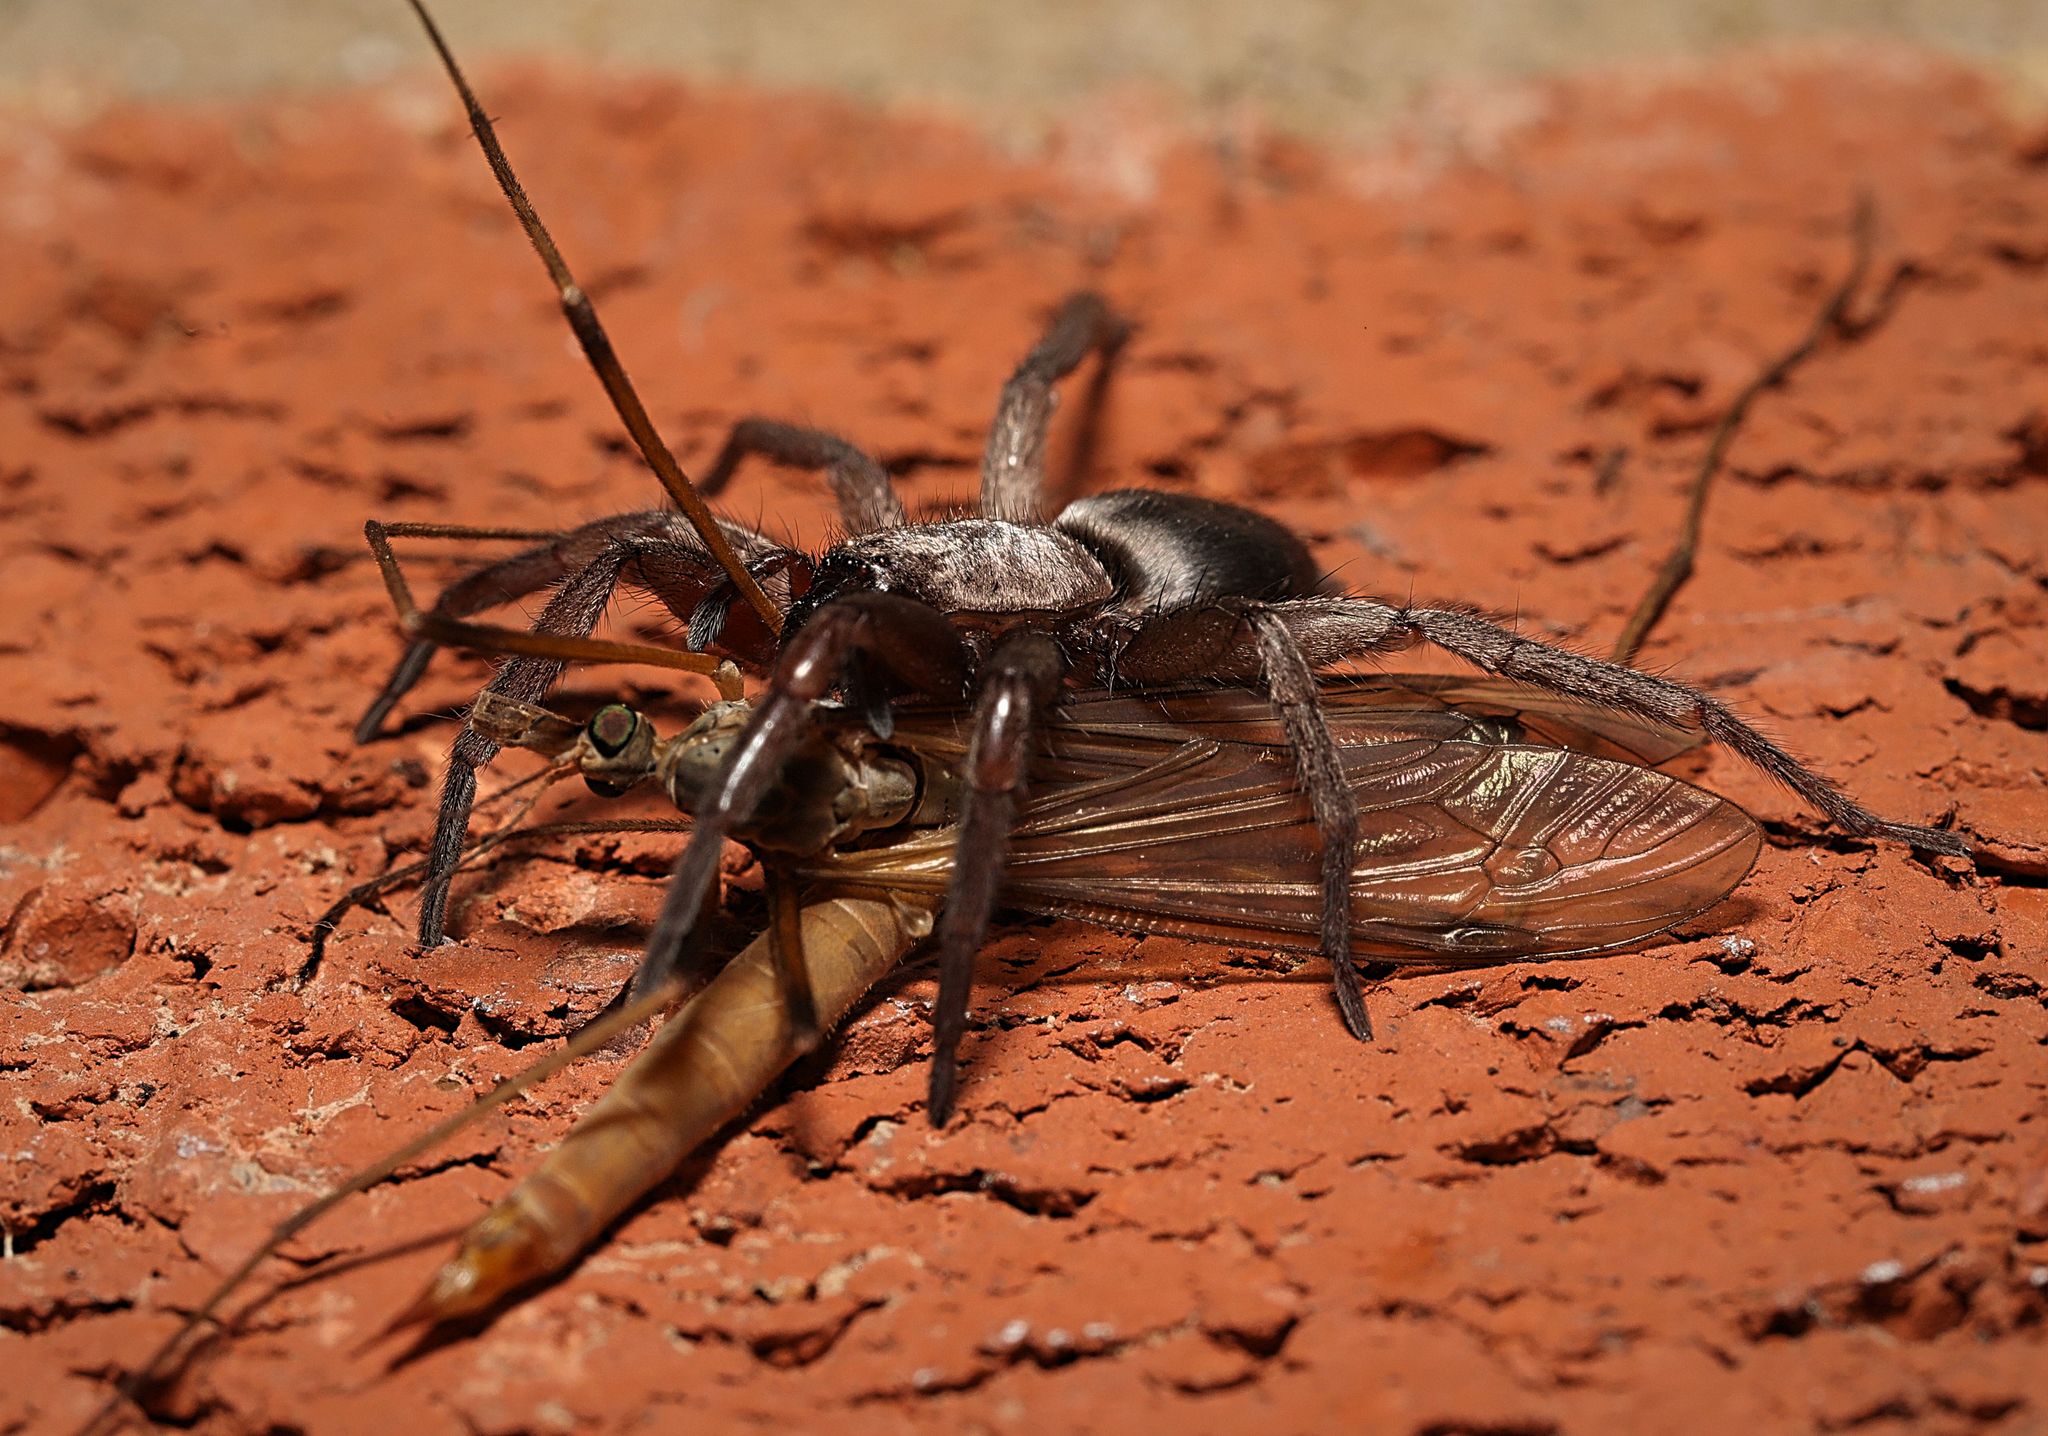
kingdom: Animalia
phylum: Arthropoda
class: Arachnida
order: Araneae
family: Gnaphosidae
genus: Scotophaeus
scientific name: Scotophaeus blackwalli
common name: Mouse spider
